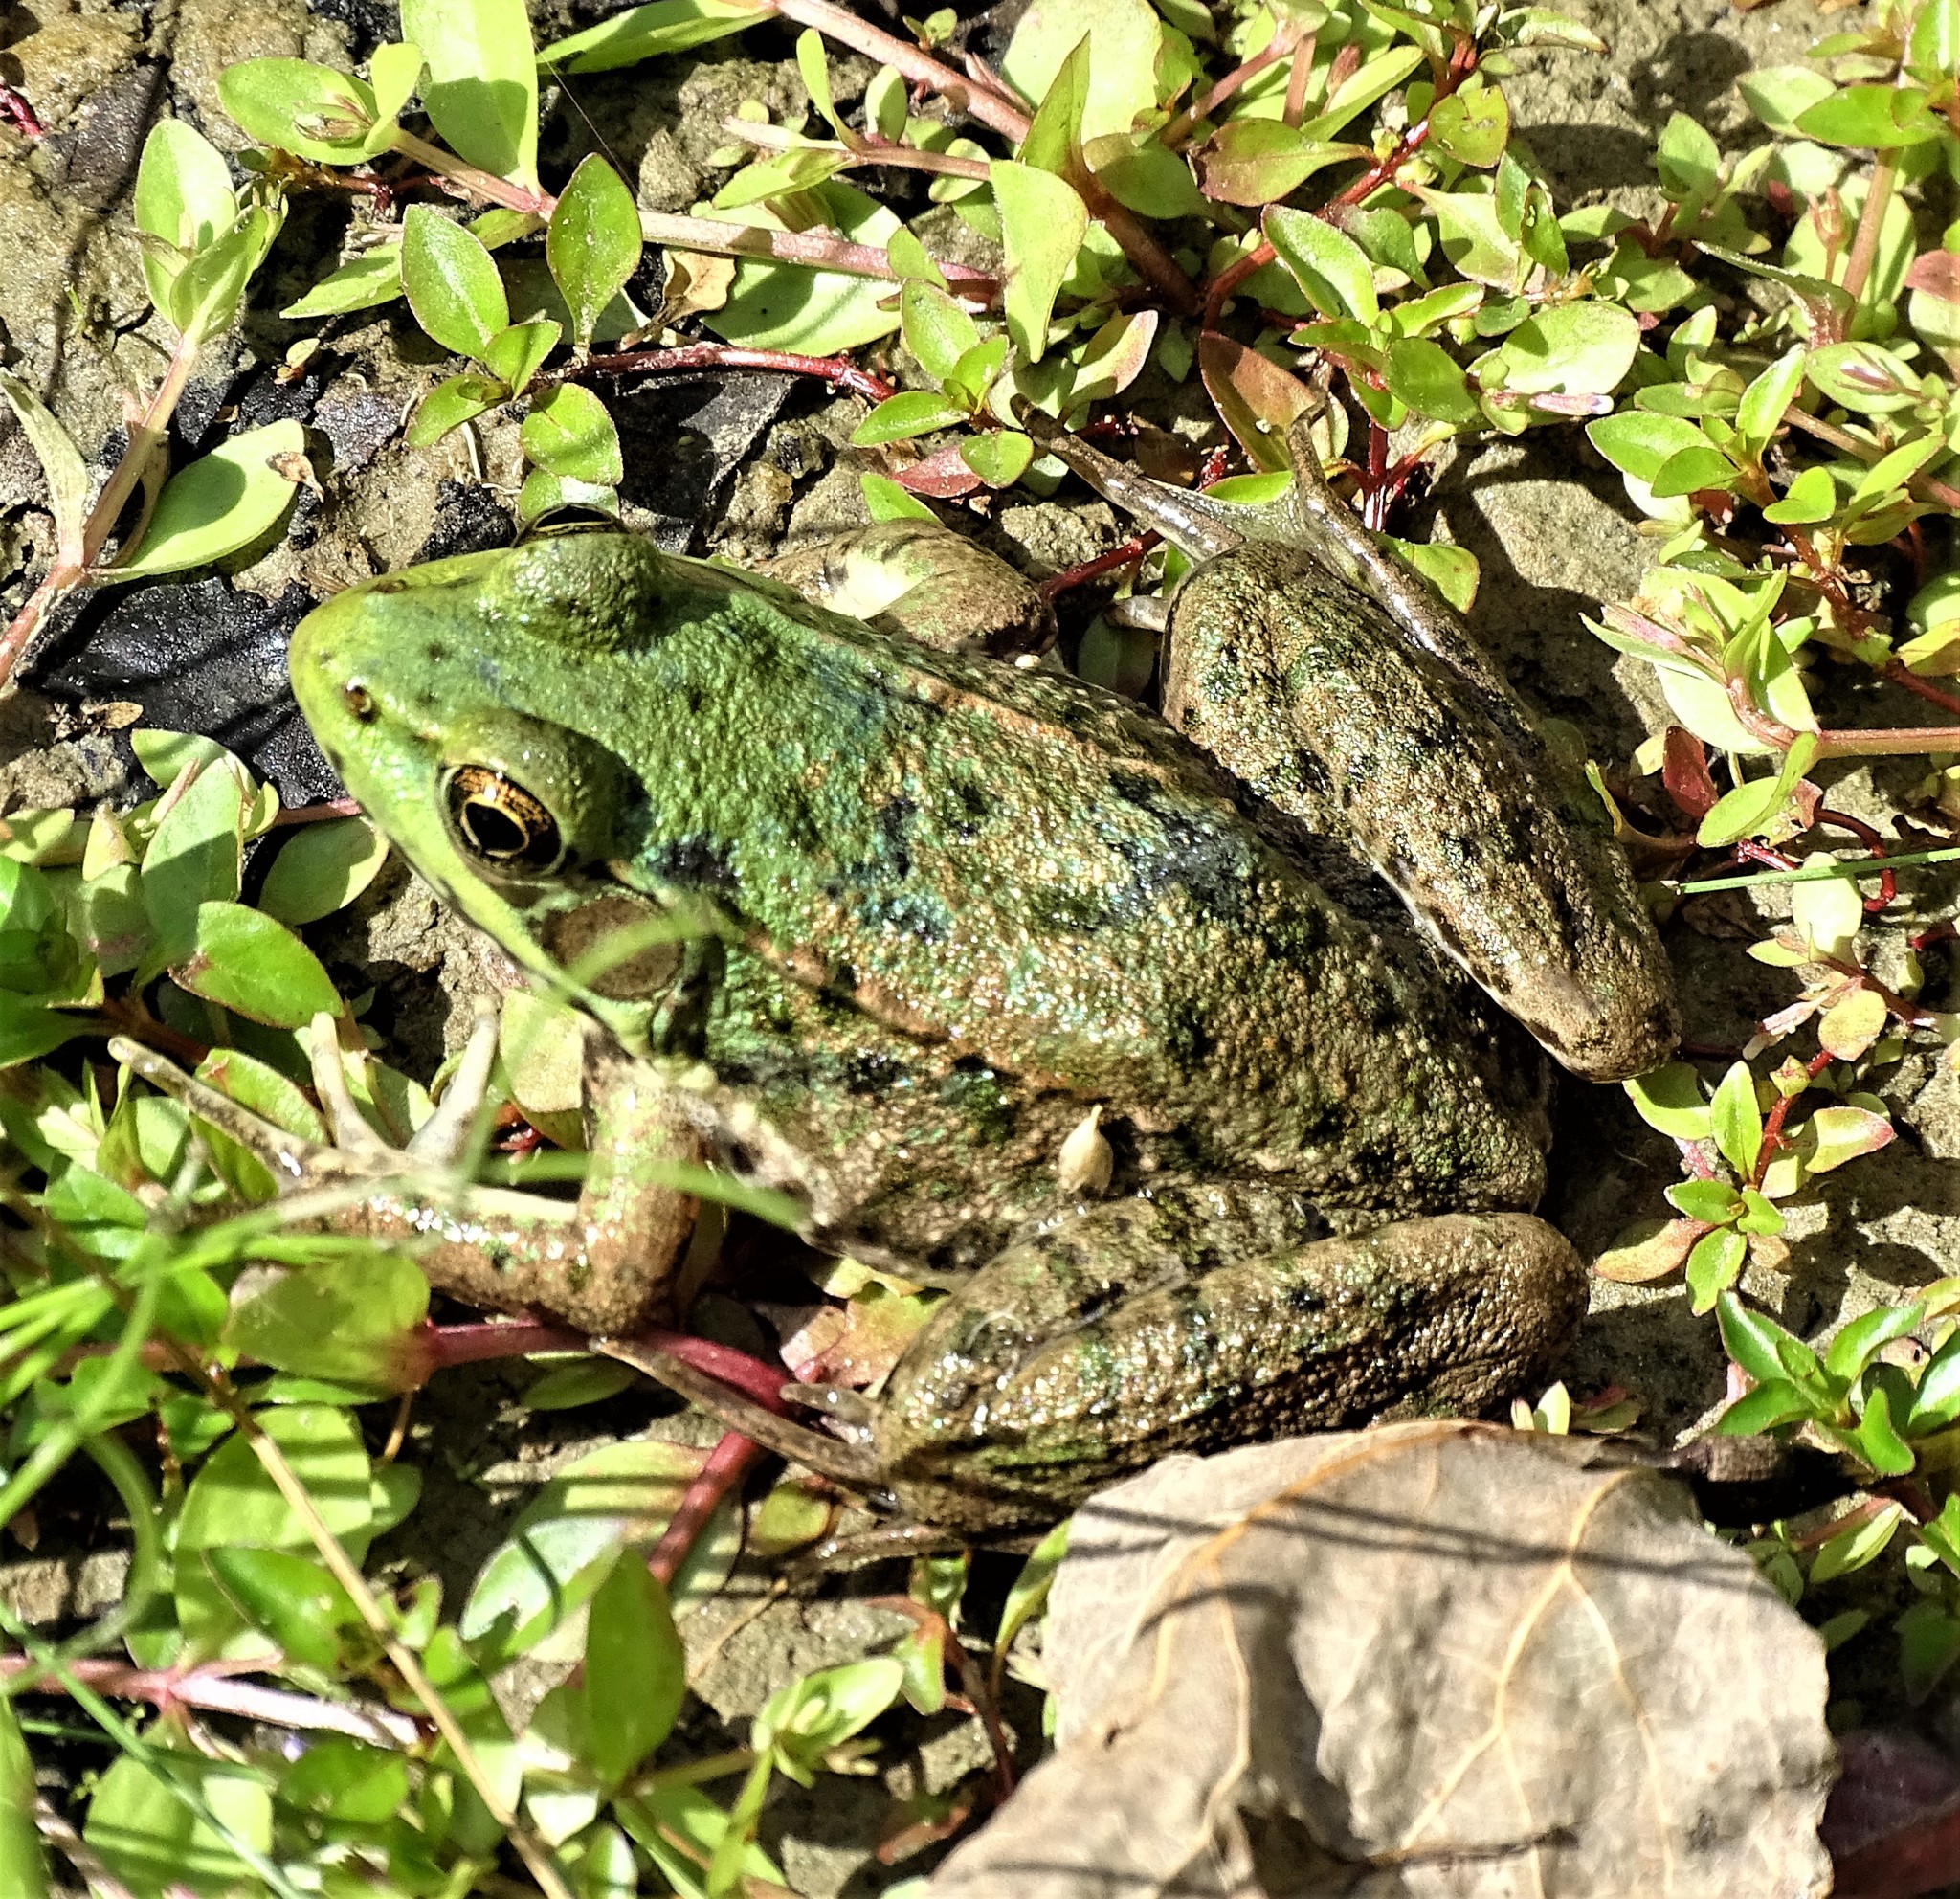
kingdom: Animalia
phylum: Chordata
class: Amphibia
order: Anura
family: Ranidae
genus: Lithobates
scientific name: Lithobates clamitans
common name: Green frog
